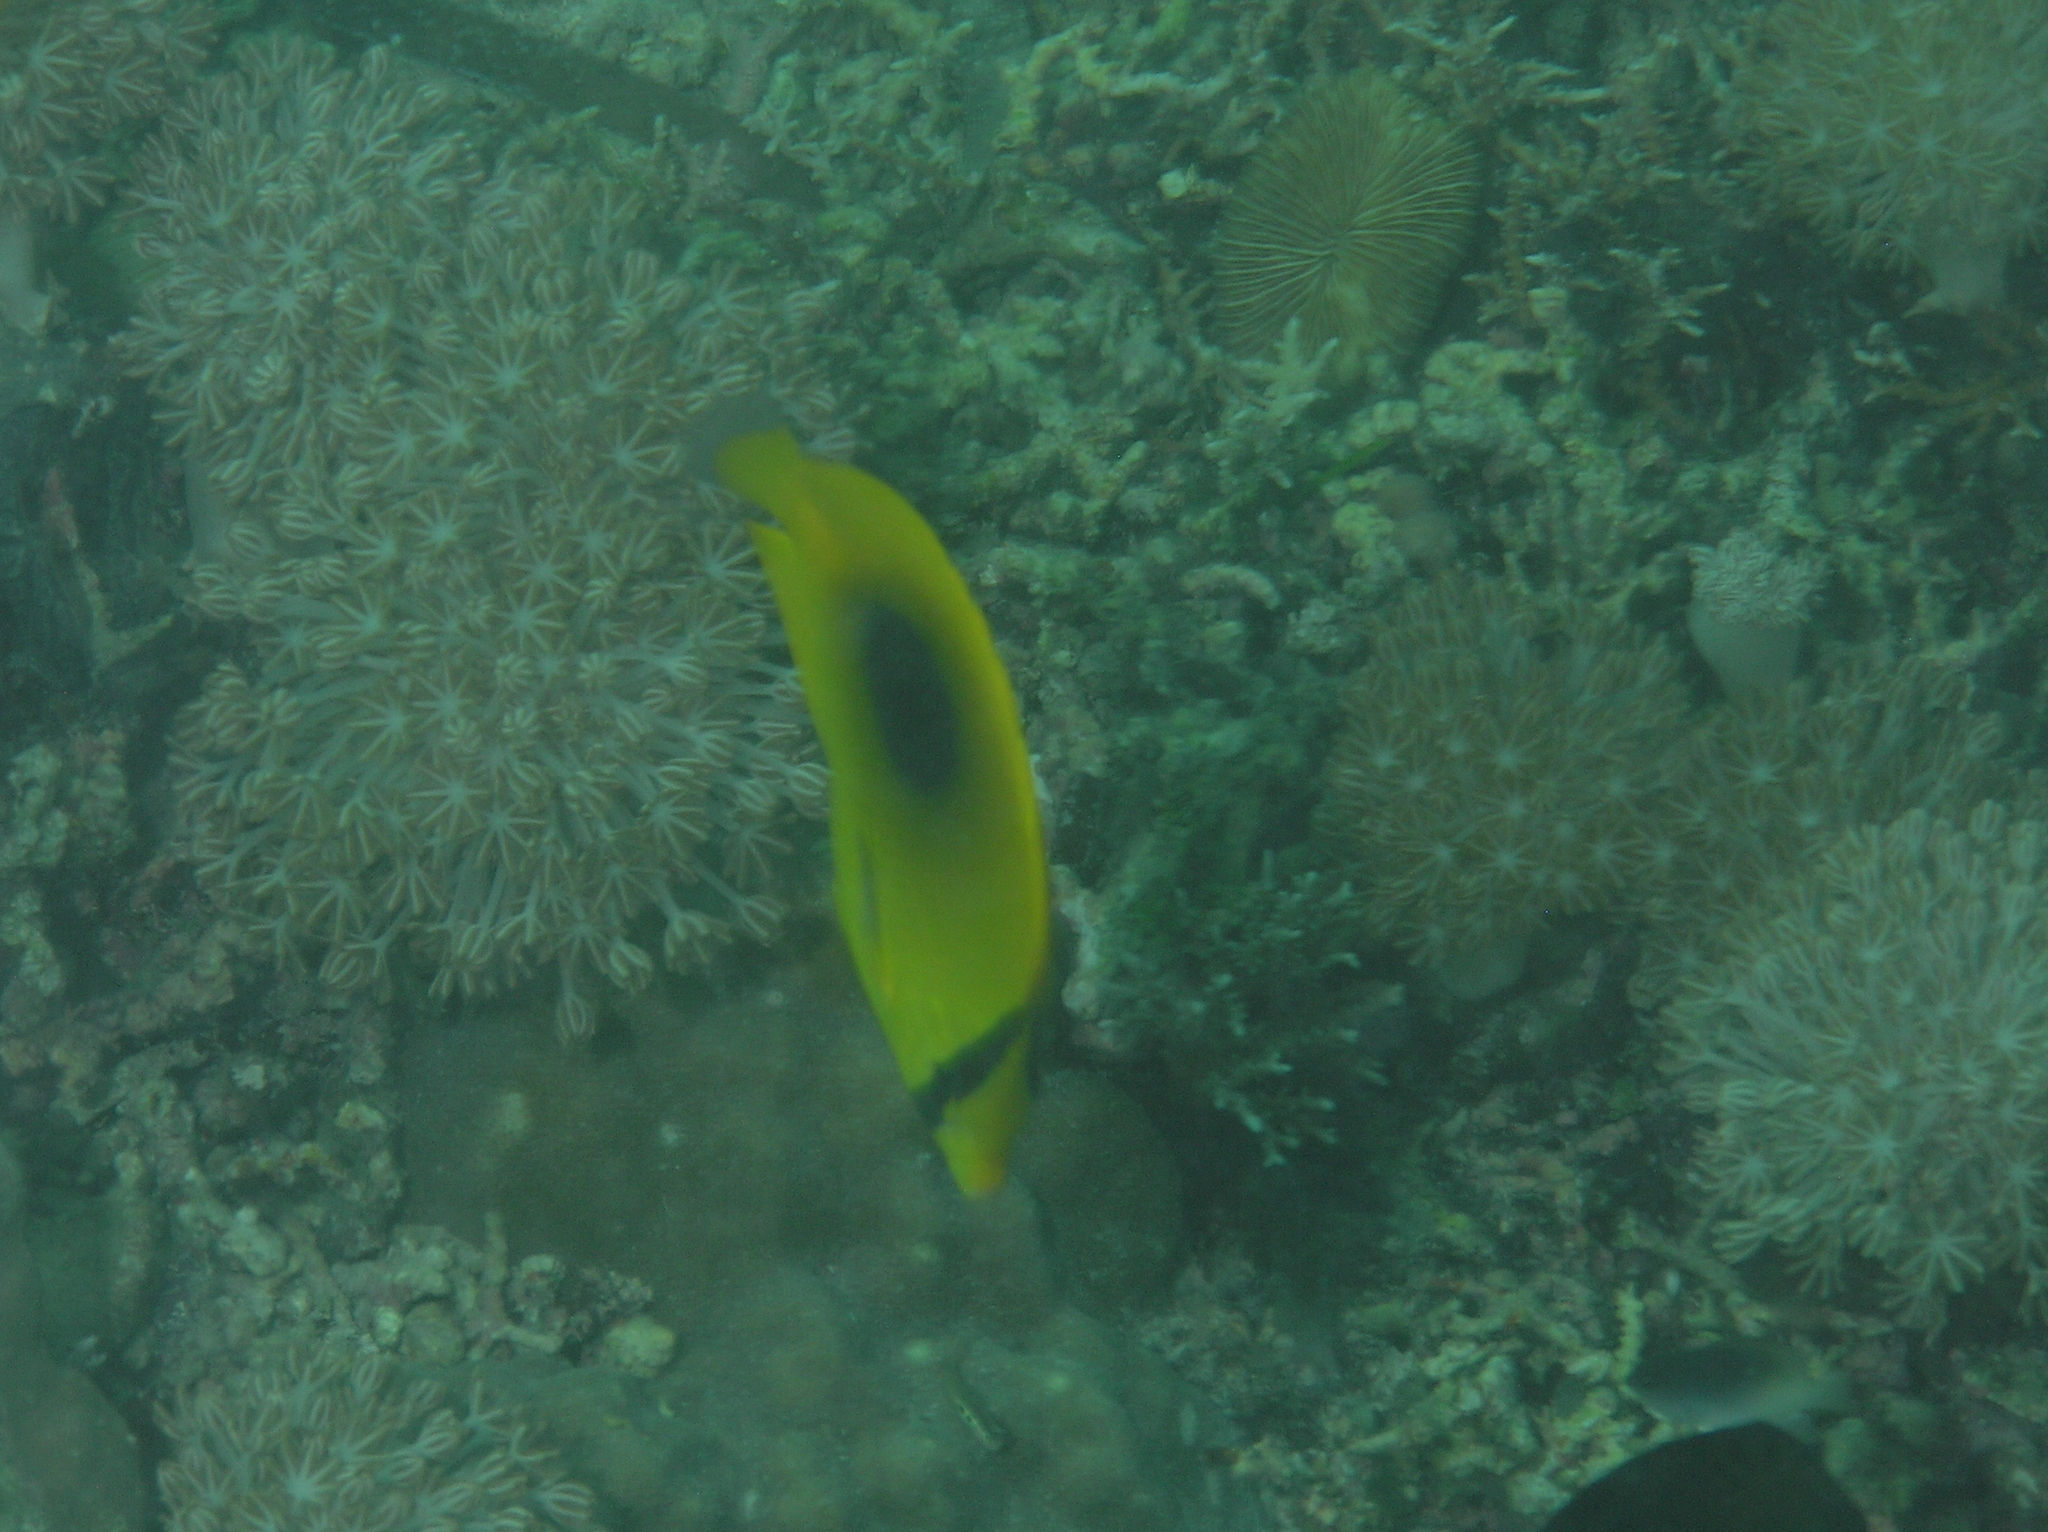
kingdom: Animalia
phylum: Chordata
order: Perciformes
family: Chaetodontidae
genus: Chaetodon
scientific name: Chaetodon speculum
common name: Mirror butterflyfish
